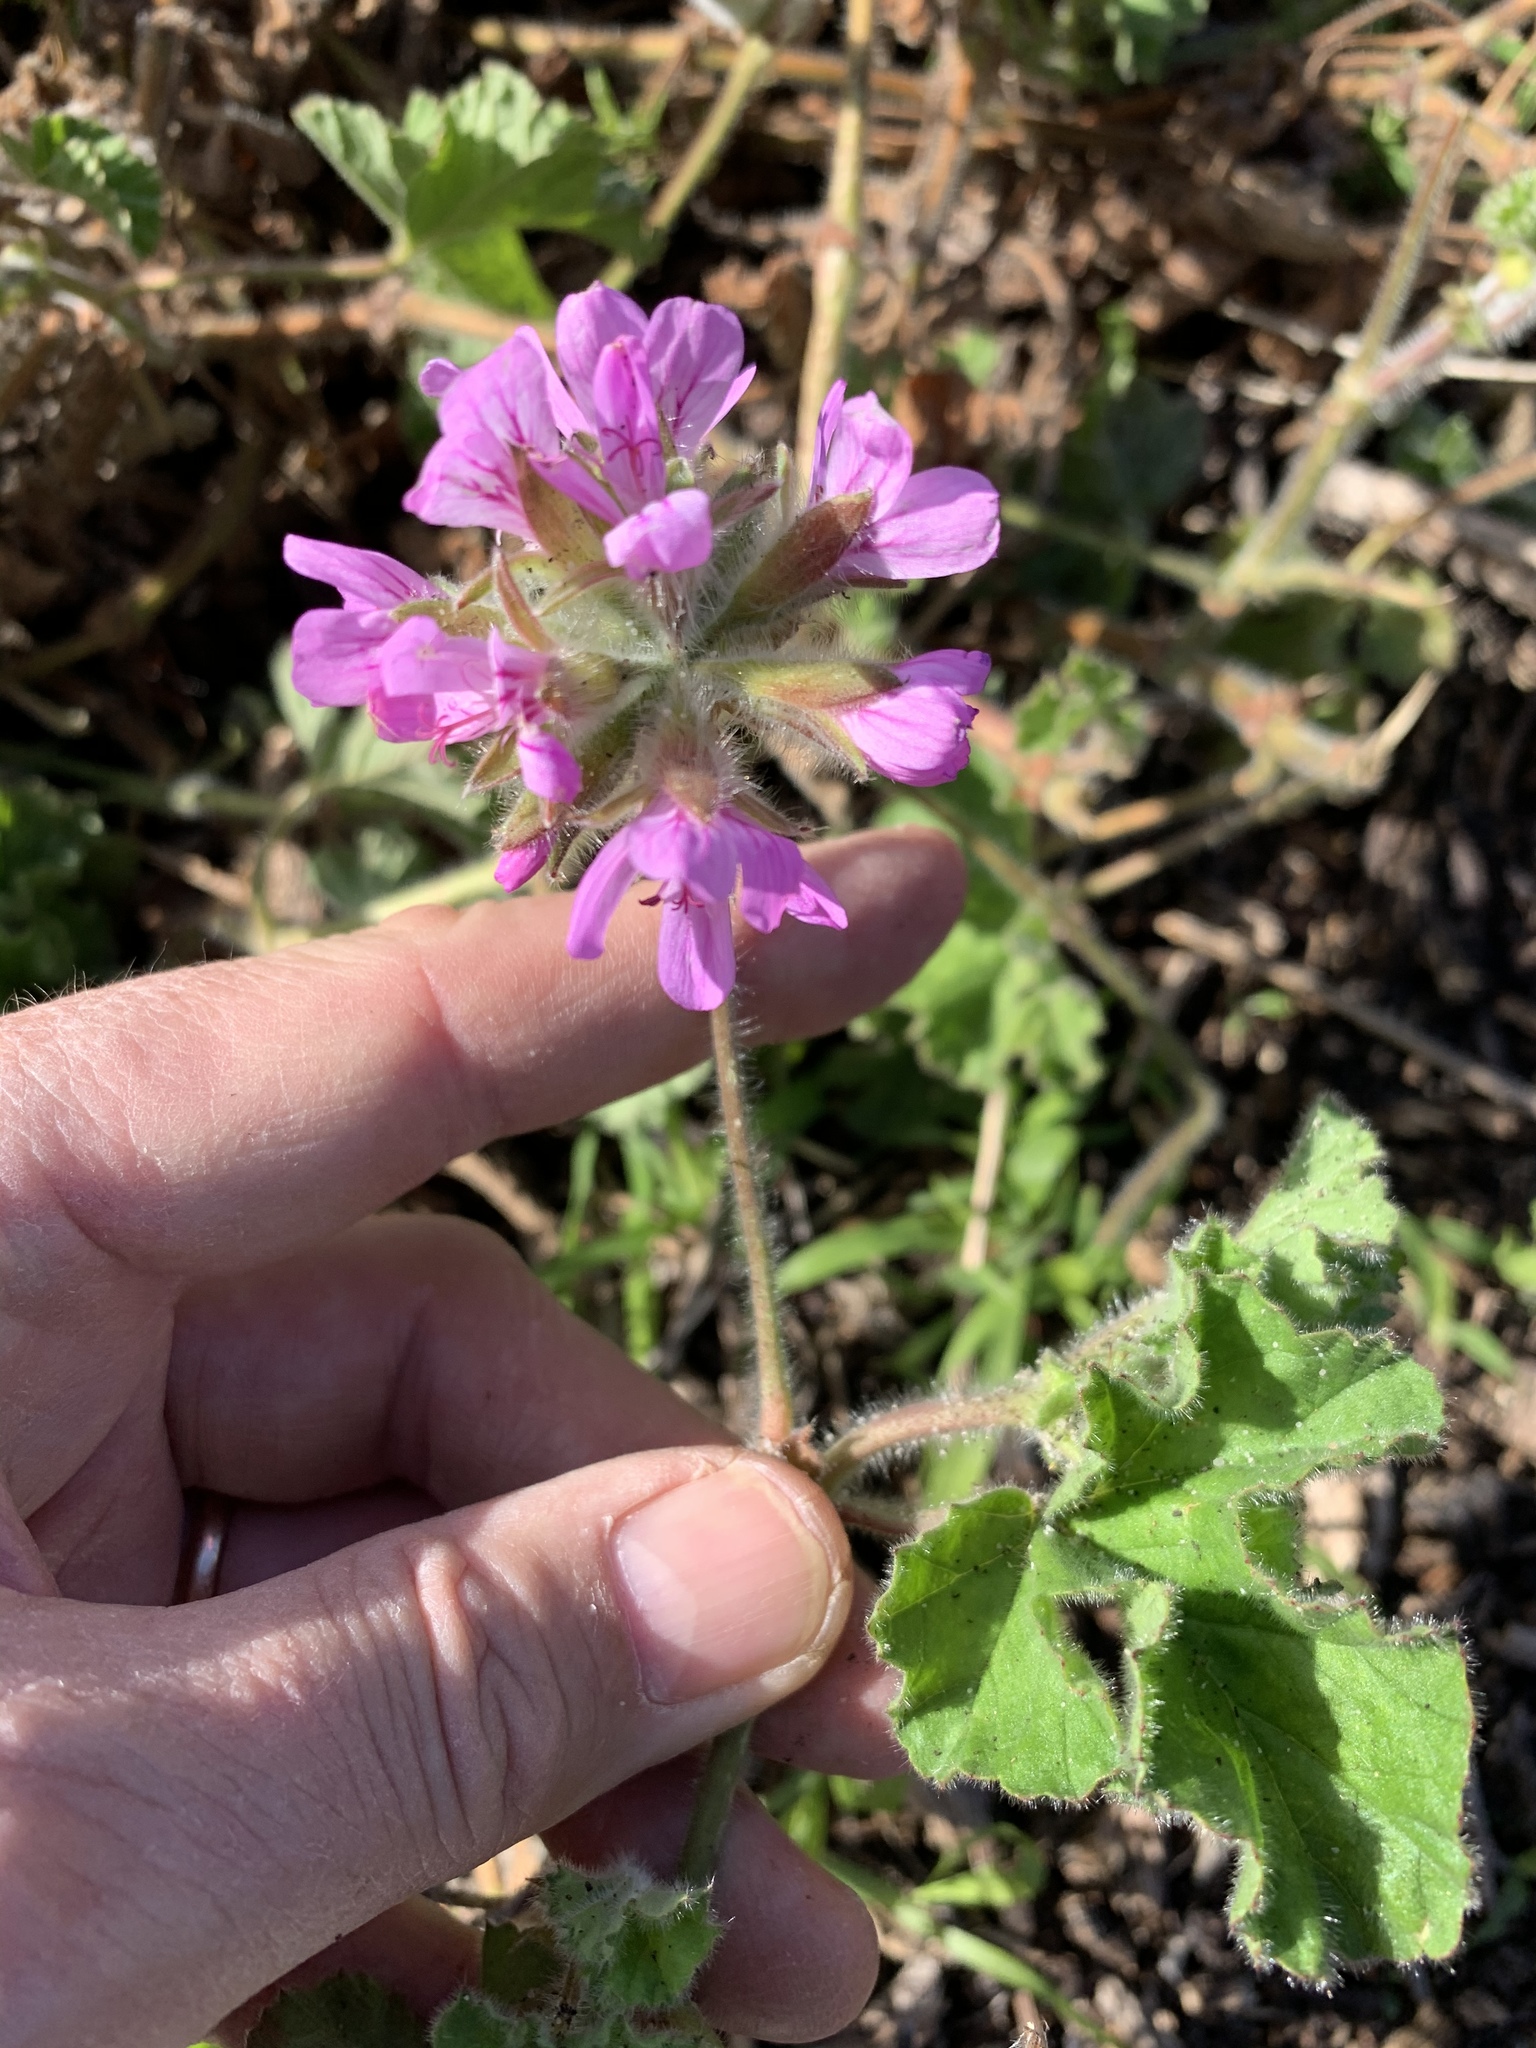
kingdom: Plantae
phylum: Tracheophyta
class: Magnoliopsida
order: Geraniales
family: Geraniaceae
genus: Pelargonium
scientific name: Pelargonium capitatum
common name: Rose scented geranium
